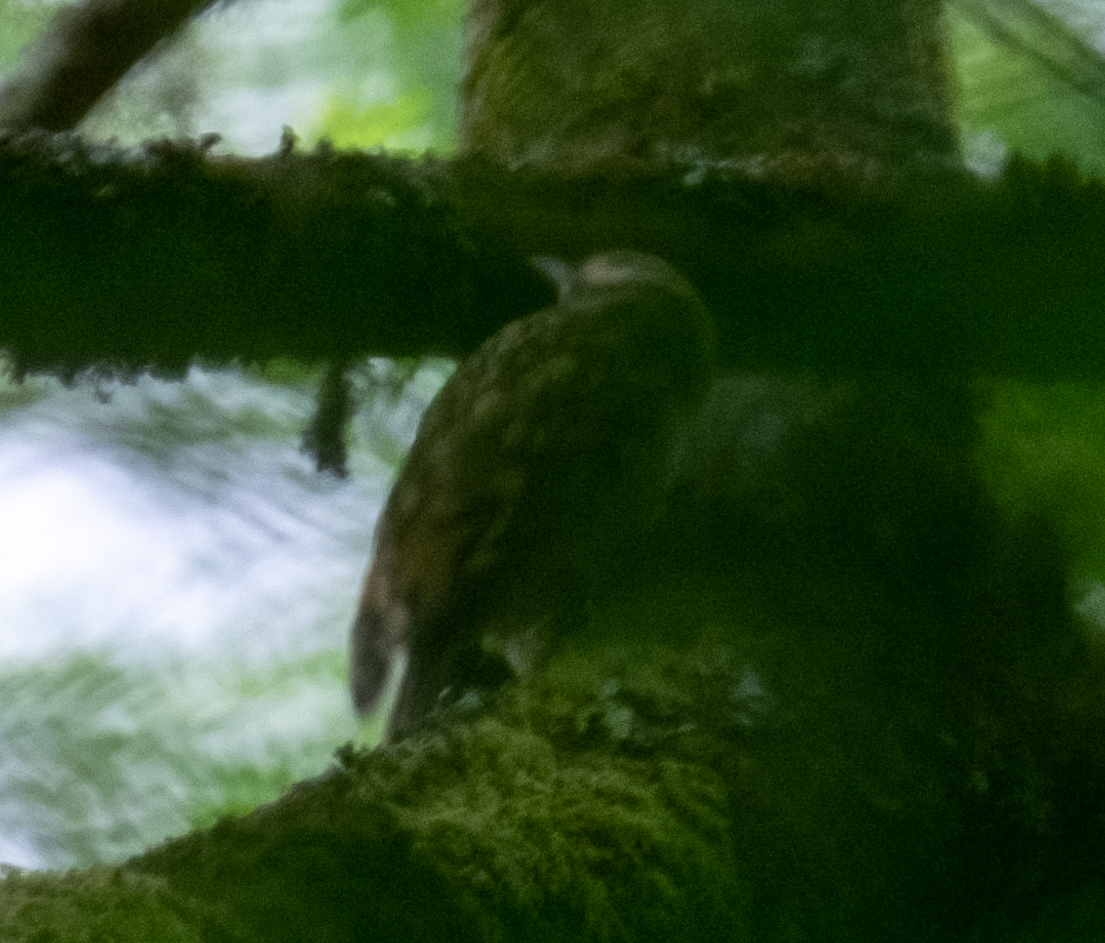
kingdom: Animalia
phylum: Chordata
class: Aves
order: Passeriformes
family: Certhiidae
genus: Certhia
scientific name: Certhia familiaris
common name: Eurasian treecreeper
